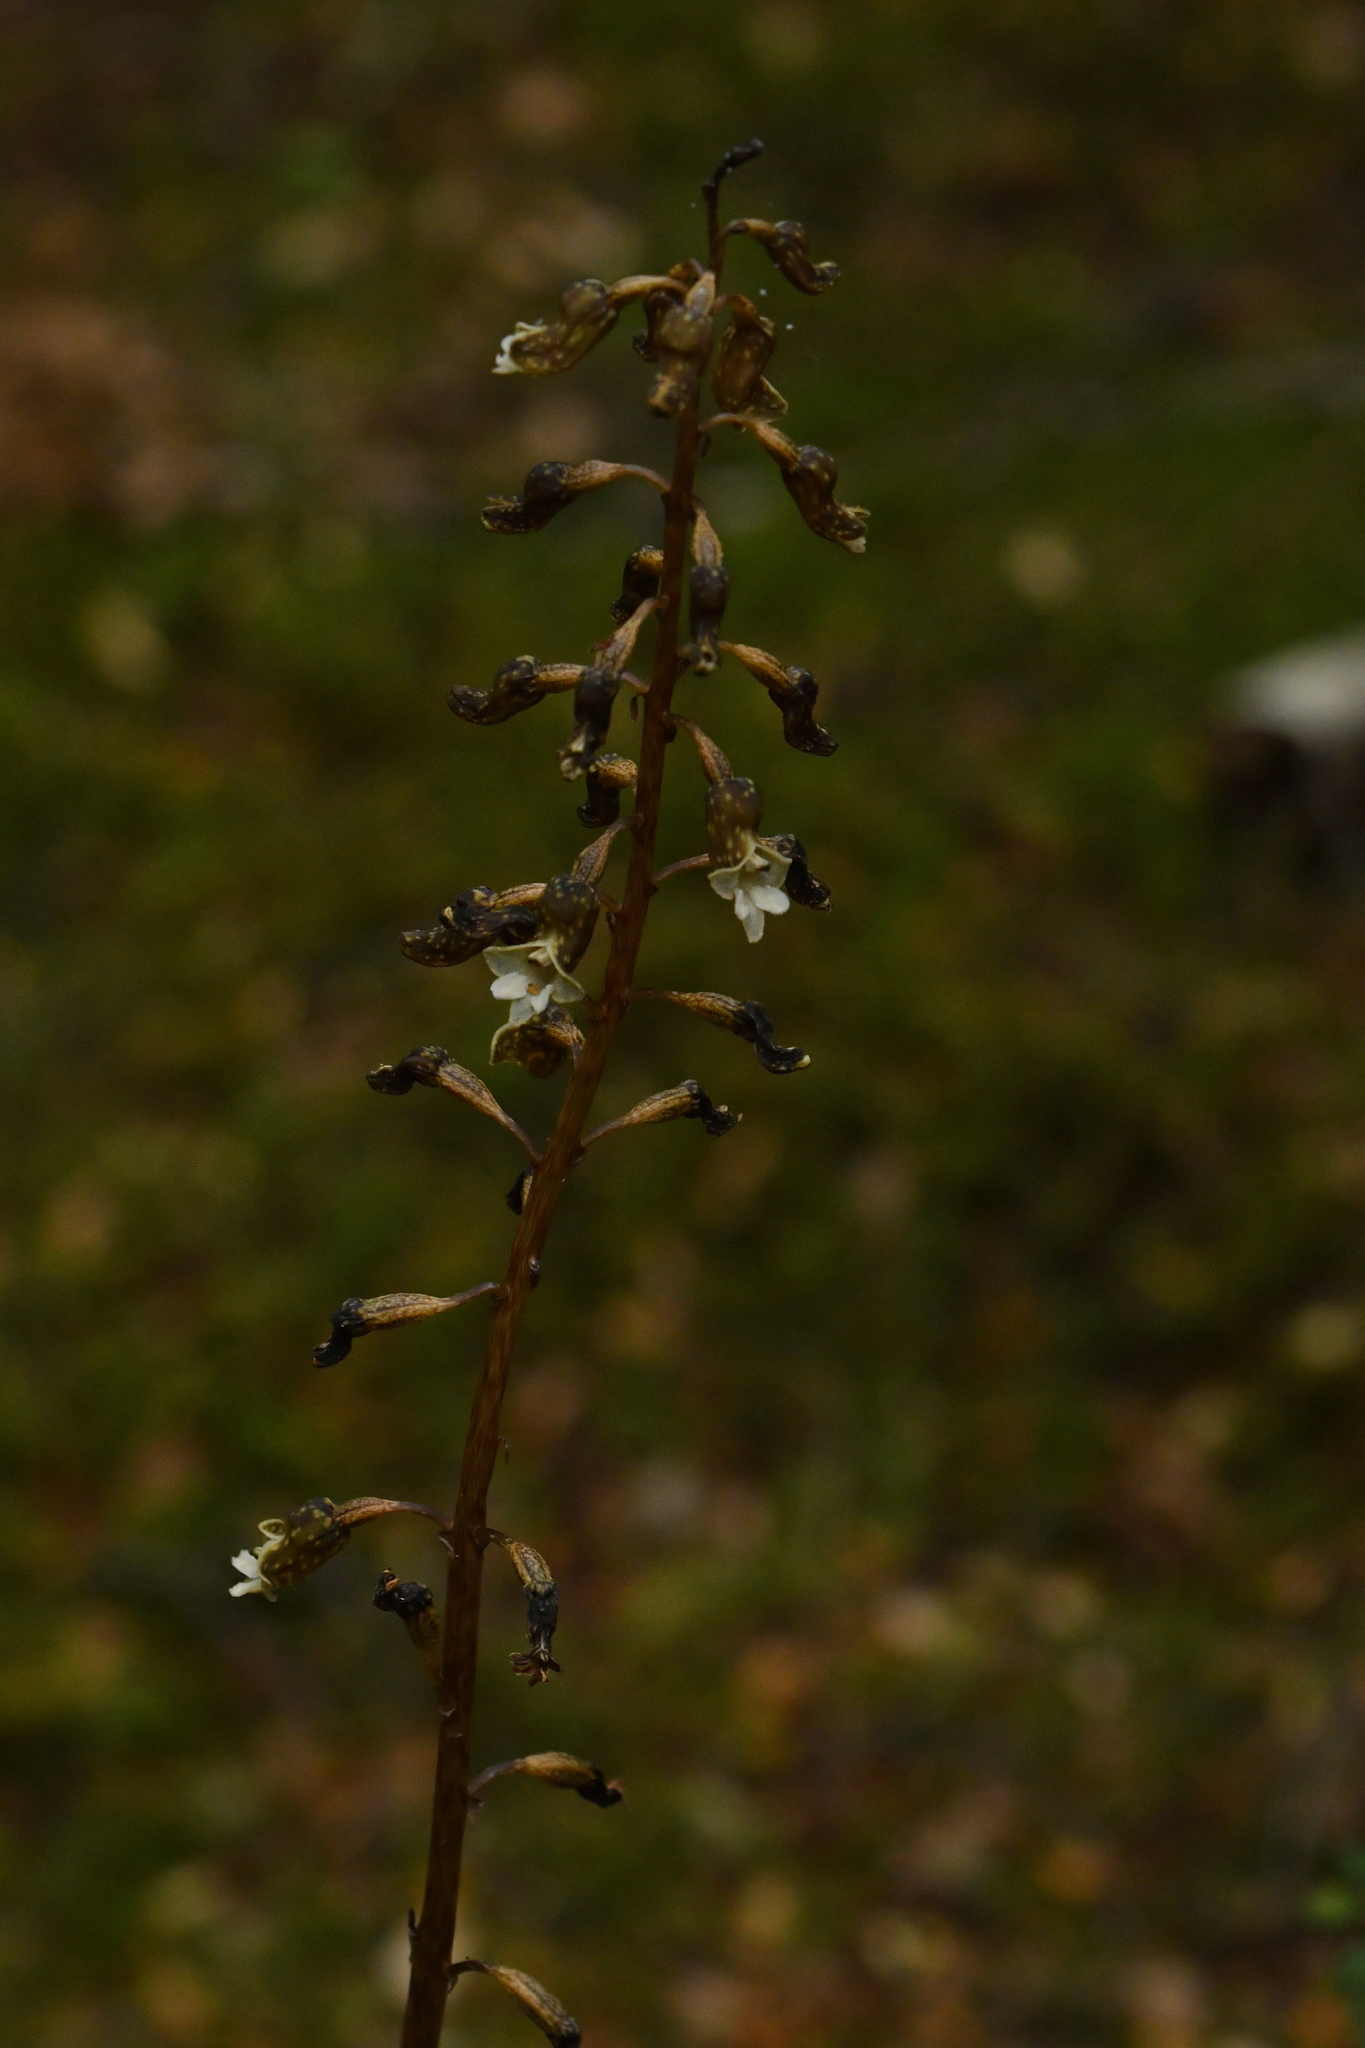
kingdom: Plantae
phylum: Tracheophyta
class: Liliopsida
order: Asparagales
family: Orchidaceae
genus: Gastrodia
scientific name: Gastrodia cunninghamii
